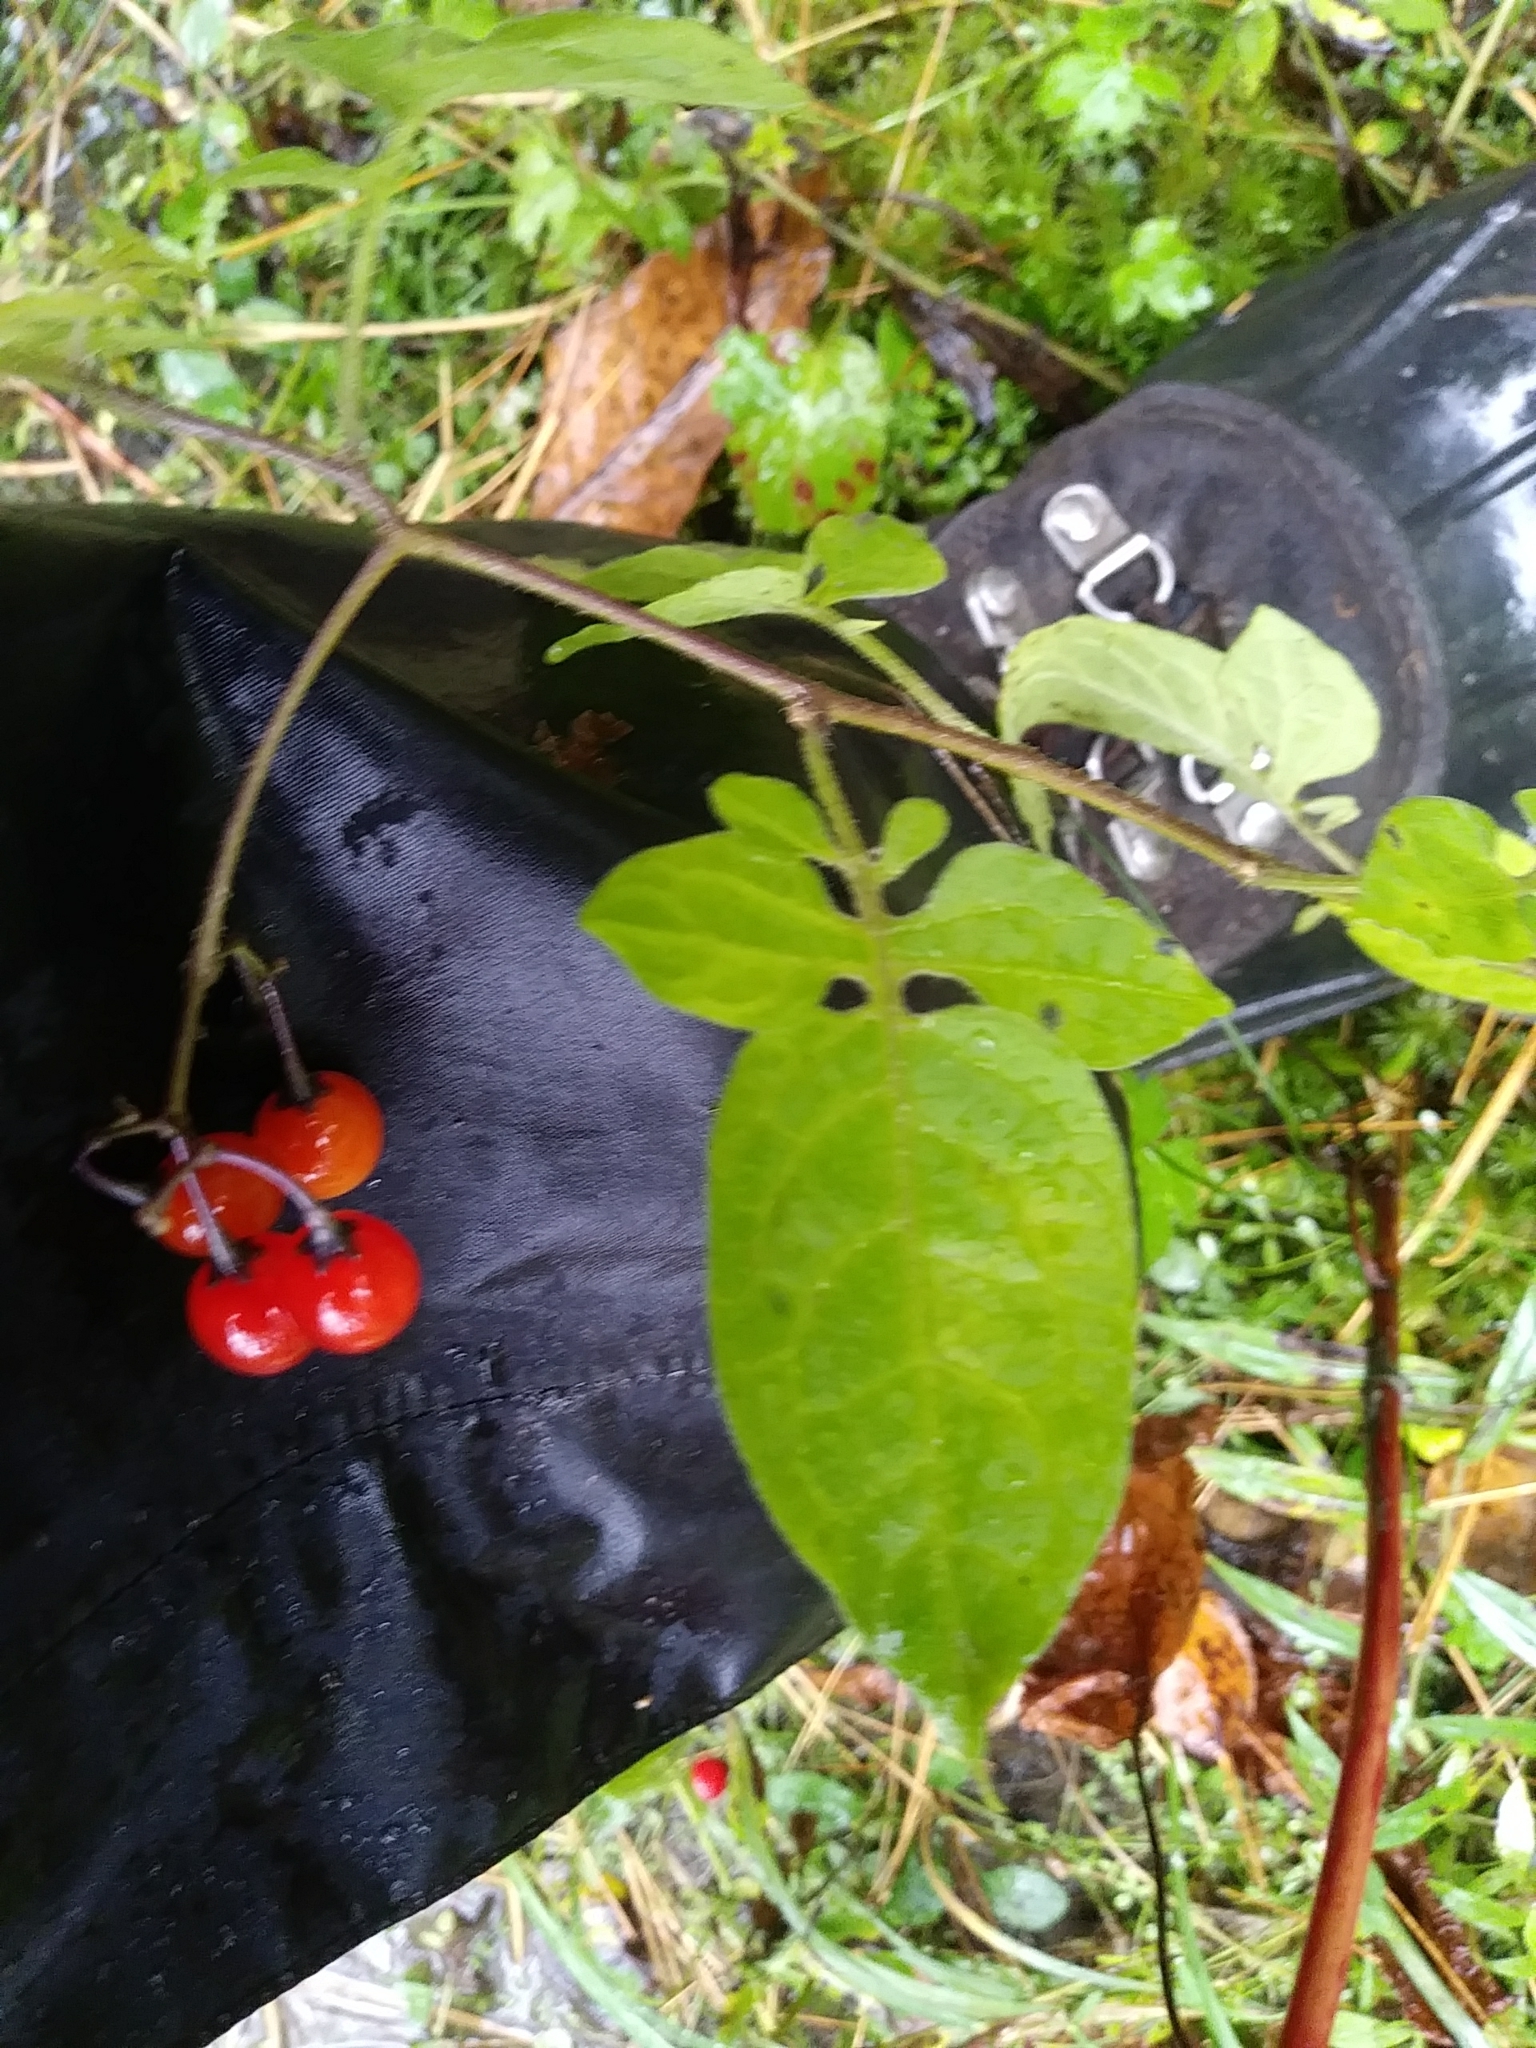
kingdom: Plantae
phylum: Tracheophyta
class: Magnoliopsida
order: Solanales
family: Solanaceae
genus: Solanum
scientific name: Solanum dulcamara
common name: Climbing nightshade
